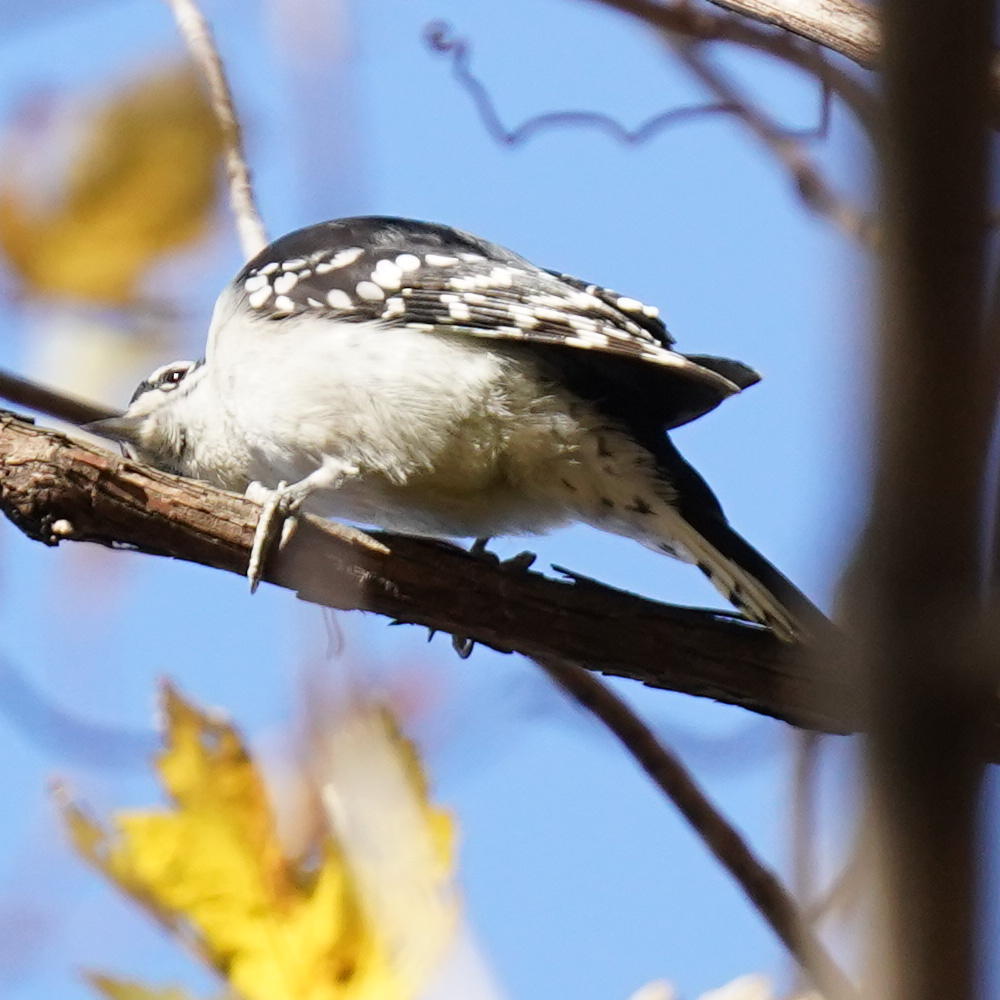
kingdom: Animalia
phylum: Chordata
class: Aves
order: Piciformes
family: Picidae
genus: Dryobates
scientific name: Dryobates pubescens
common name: Downy woodpecker
